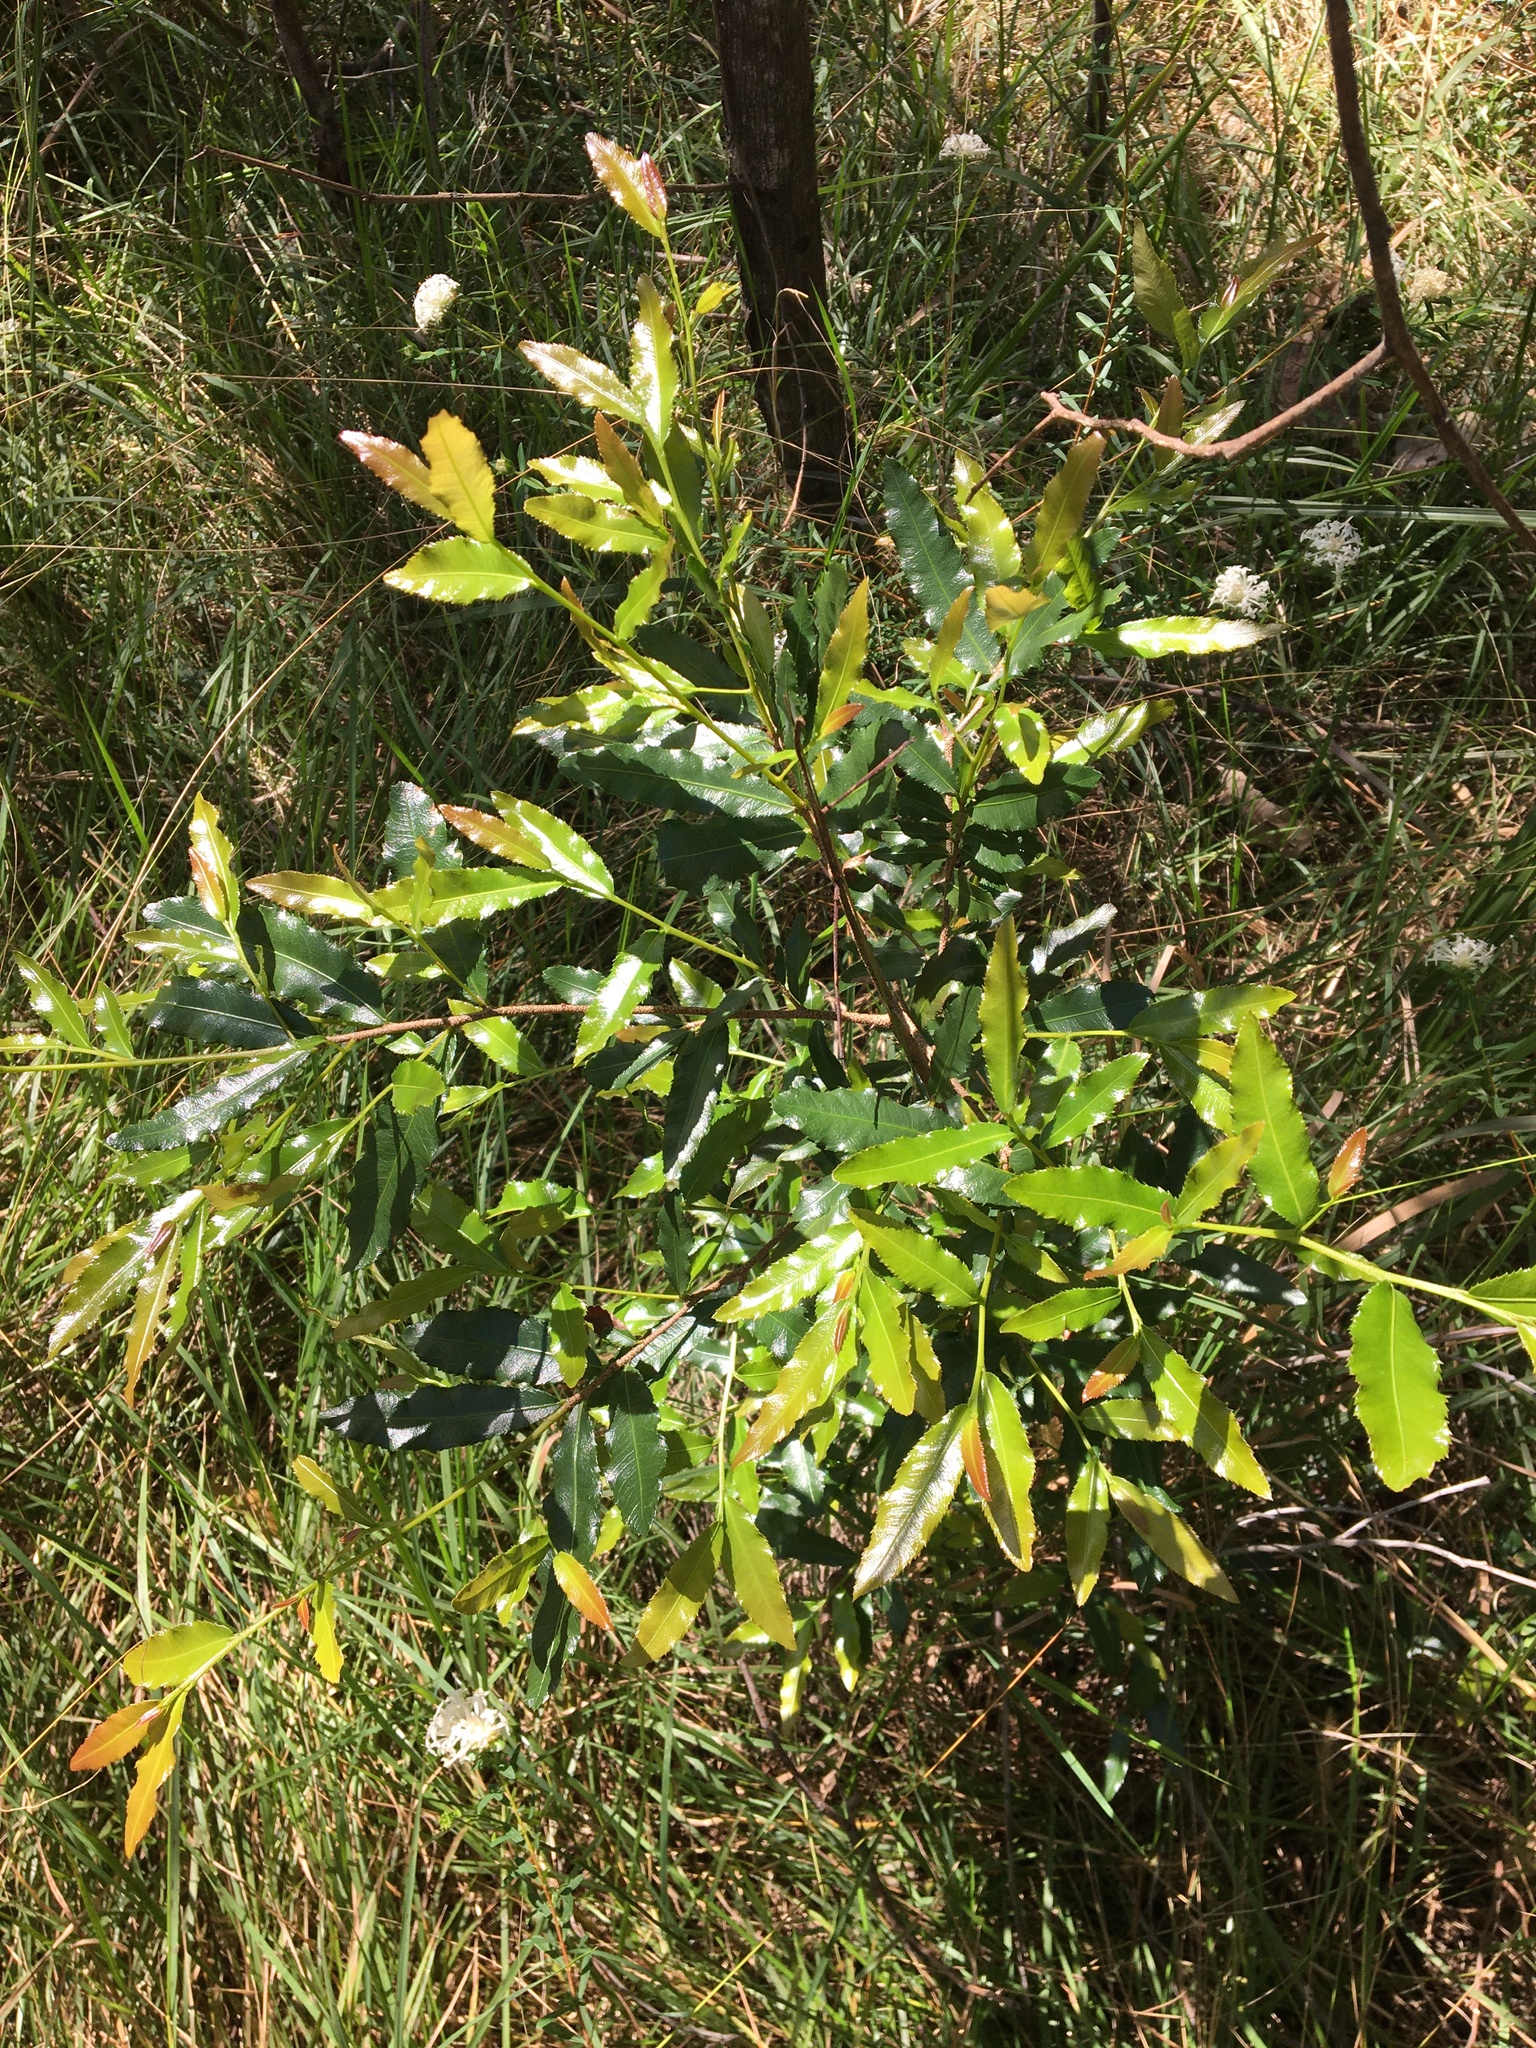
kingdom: Plantae
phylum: Tracheophyta
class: Magnoliopsida
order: Malpighiales
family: Ochnaceae
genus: Ochna
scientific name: Ochna serrulata
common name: Mickey mouse plant
